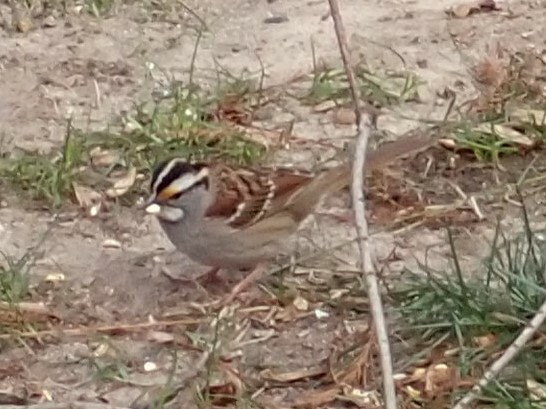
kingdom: Animalia
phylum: Chordata
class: Aves
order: Passeriformes
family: Passerellidae
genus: Zonotrichia
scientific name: Zonotrichia albicollis
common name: White-throated sparrow
